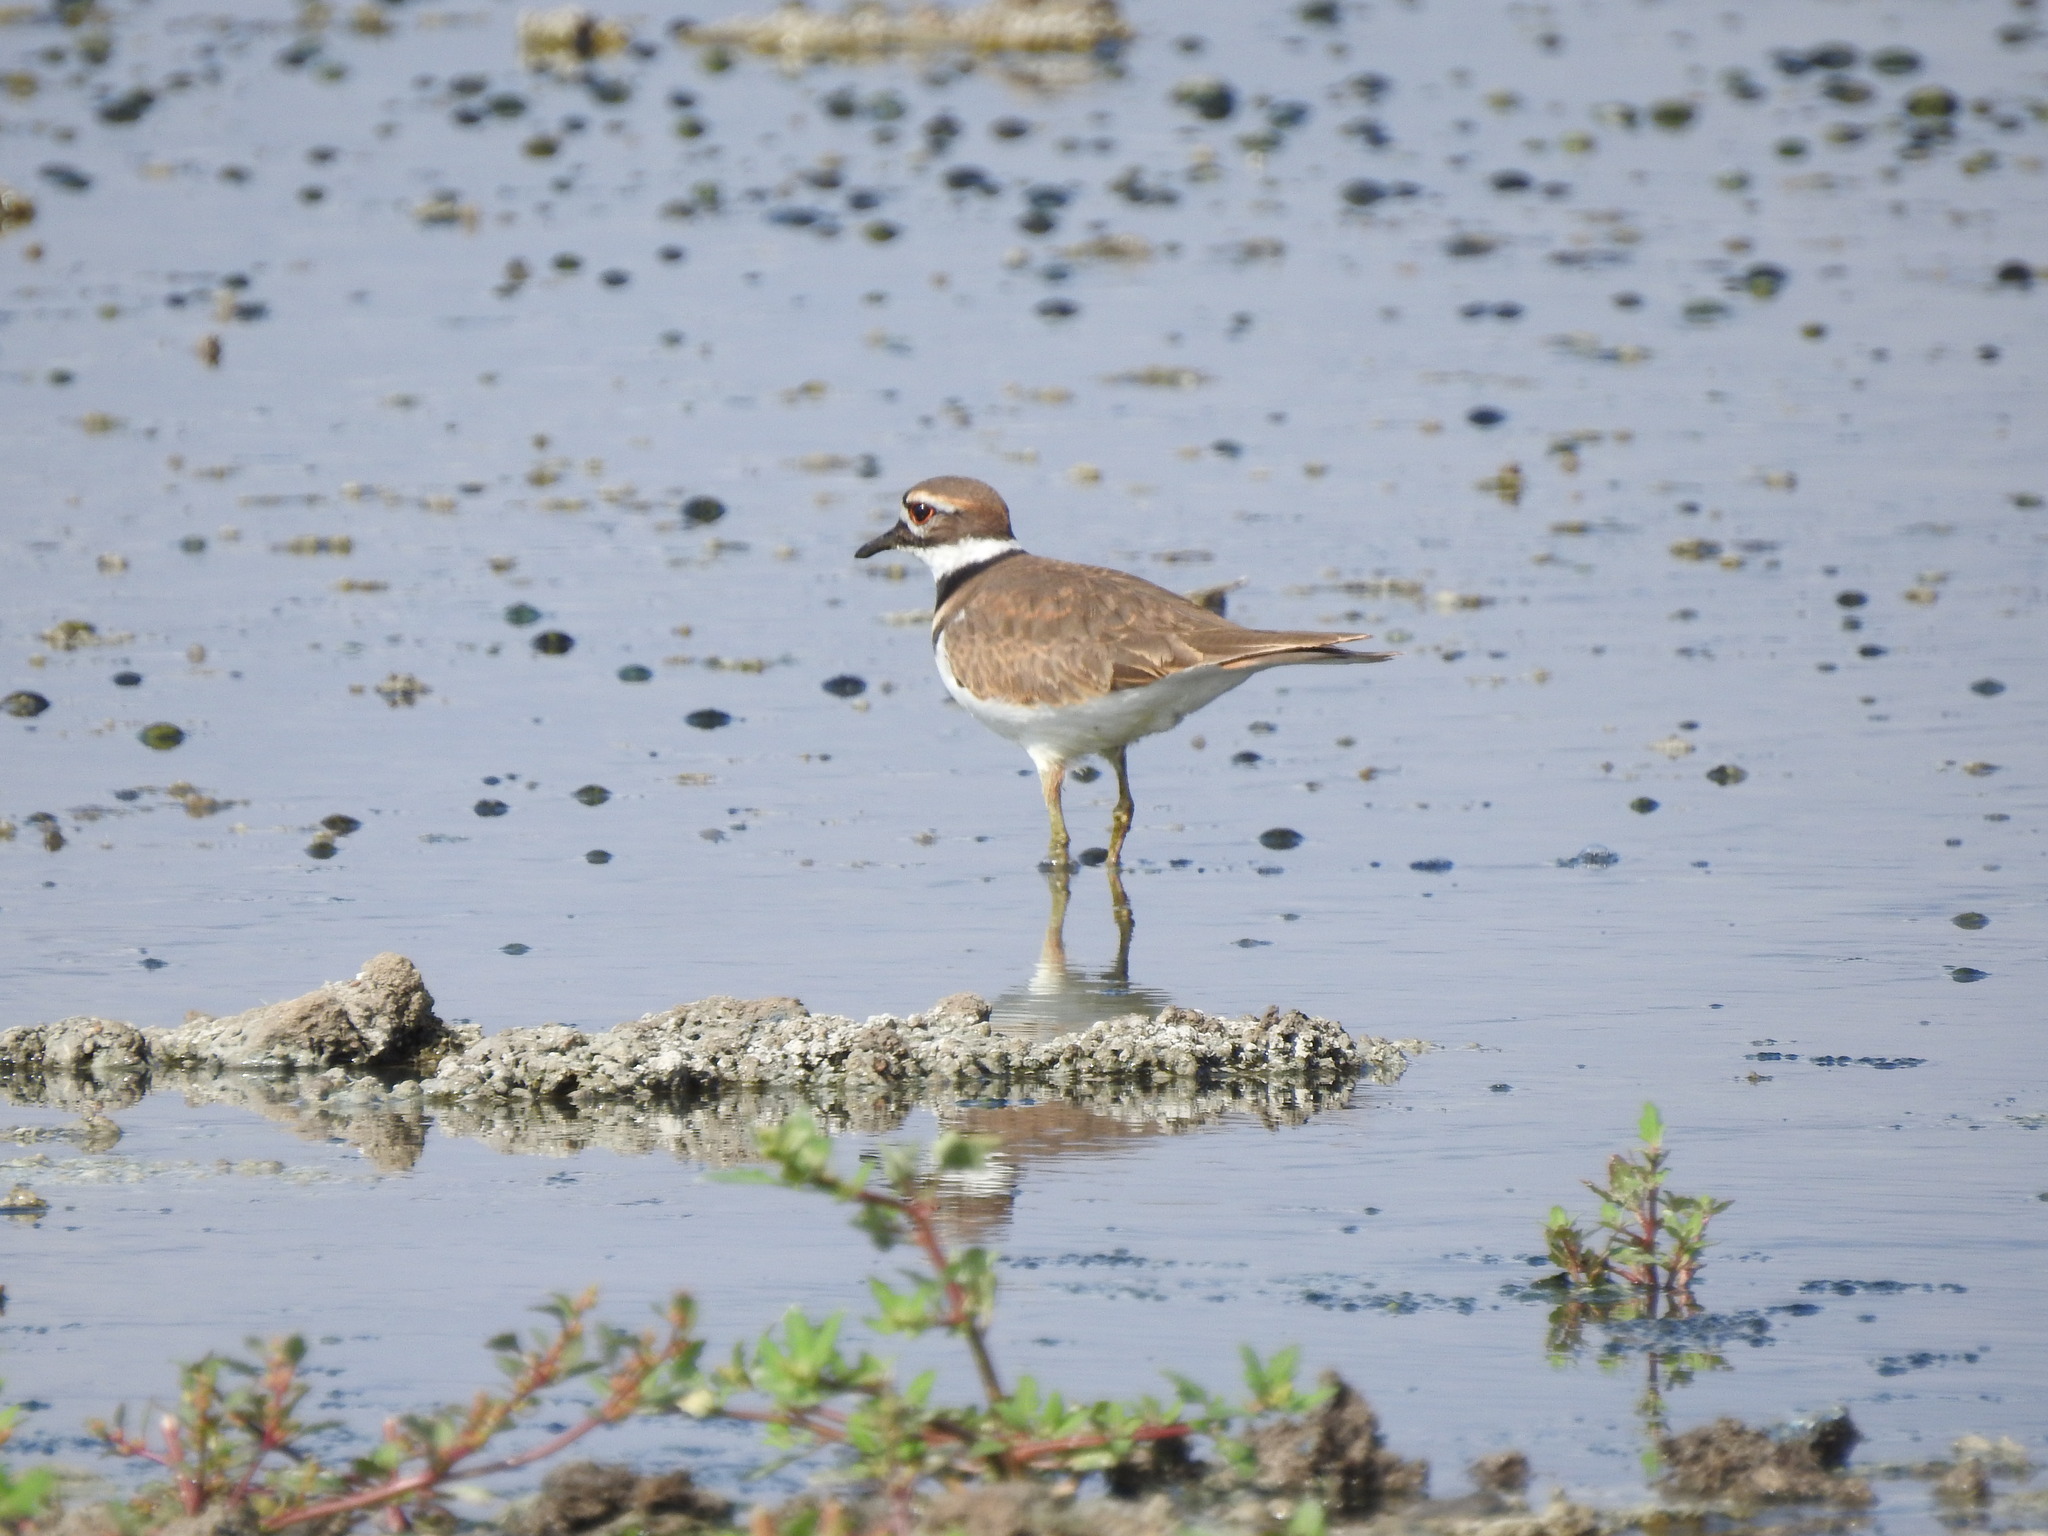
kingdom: Animalia
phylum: Chordata
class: Aves
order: Charadriiformes
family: Charadriidae
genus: Charadrius
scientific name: Charadrius vociferus
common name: Killdeer
